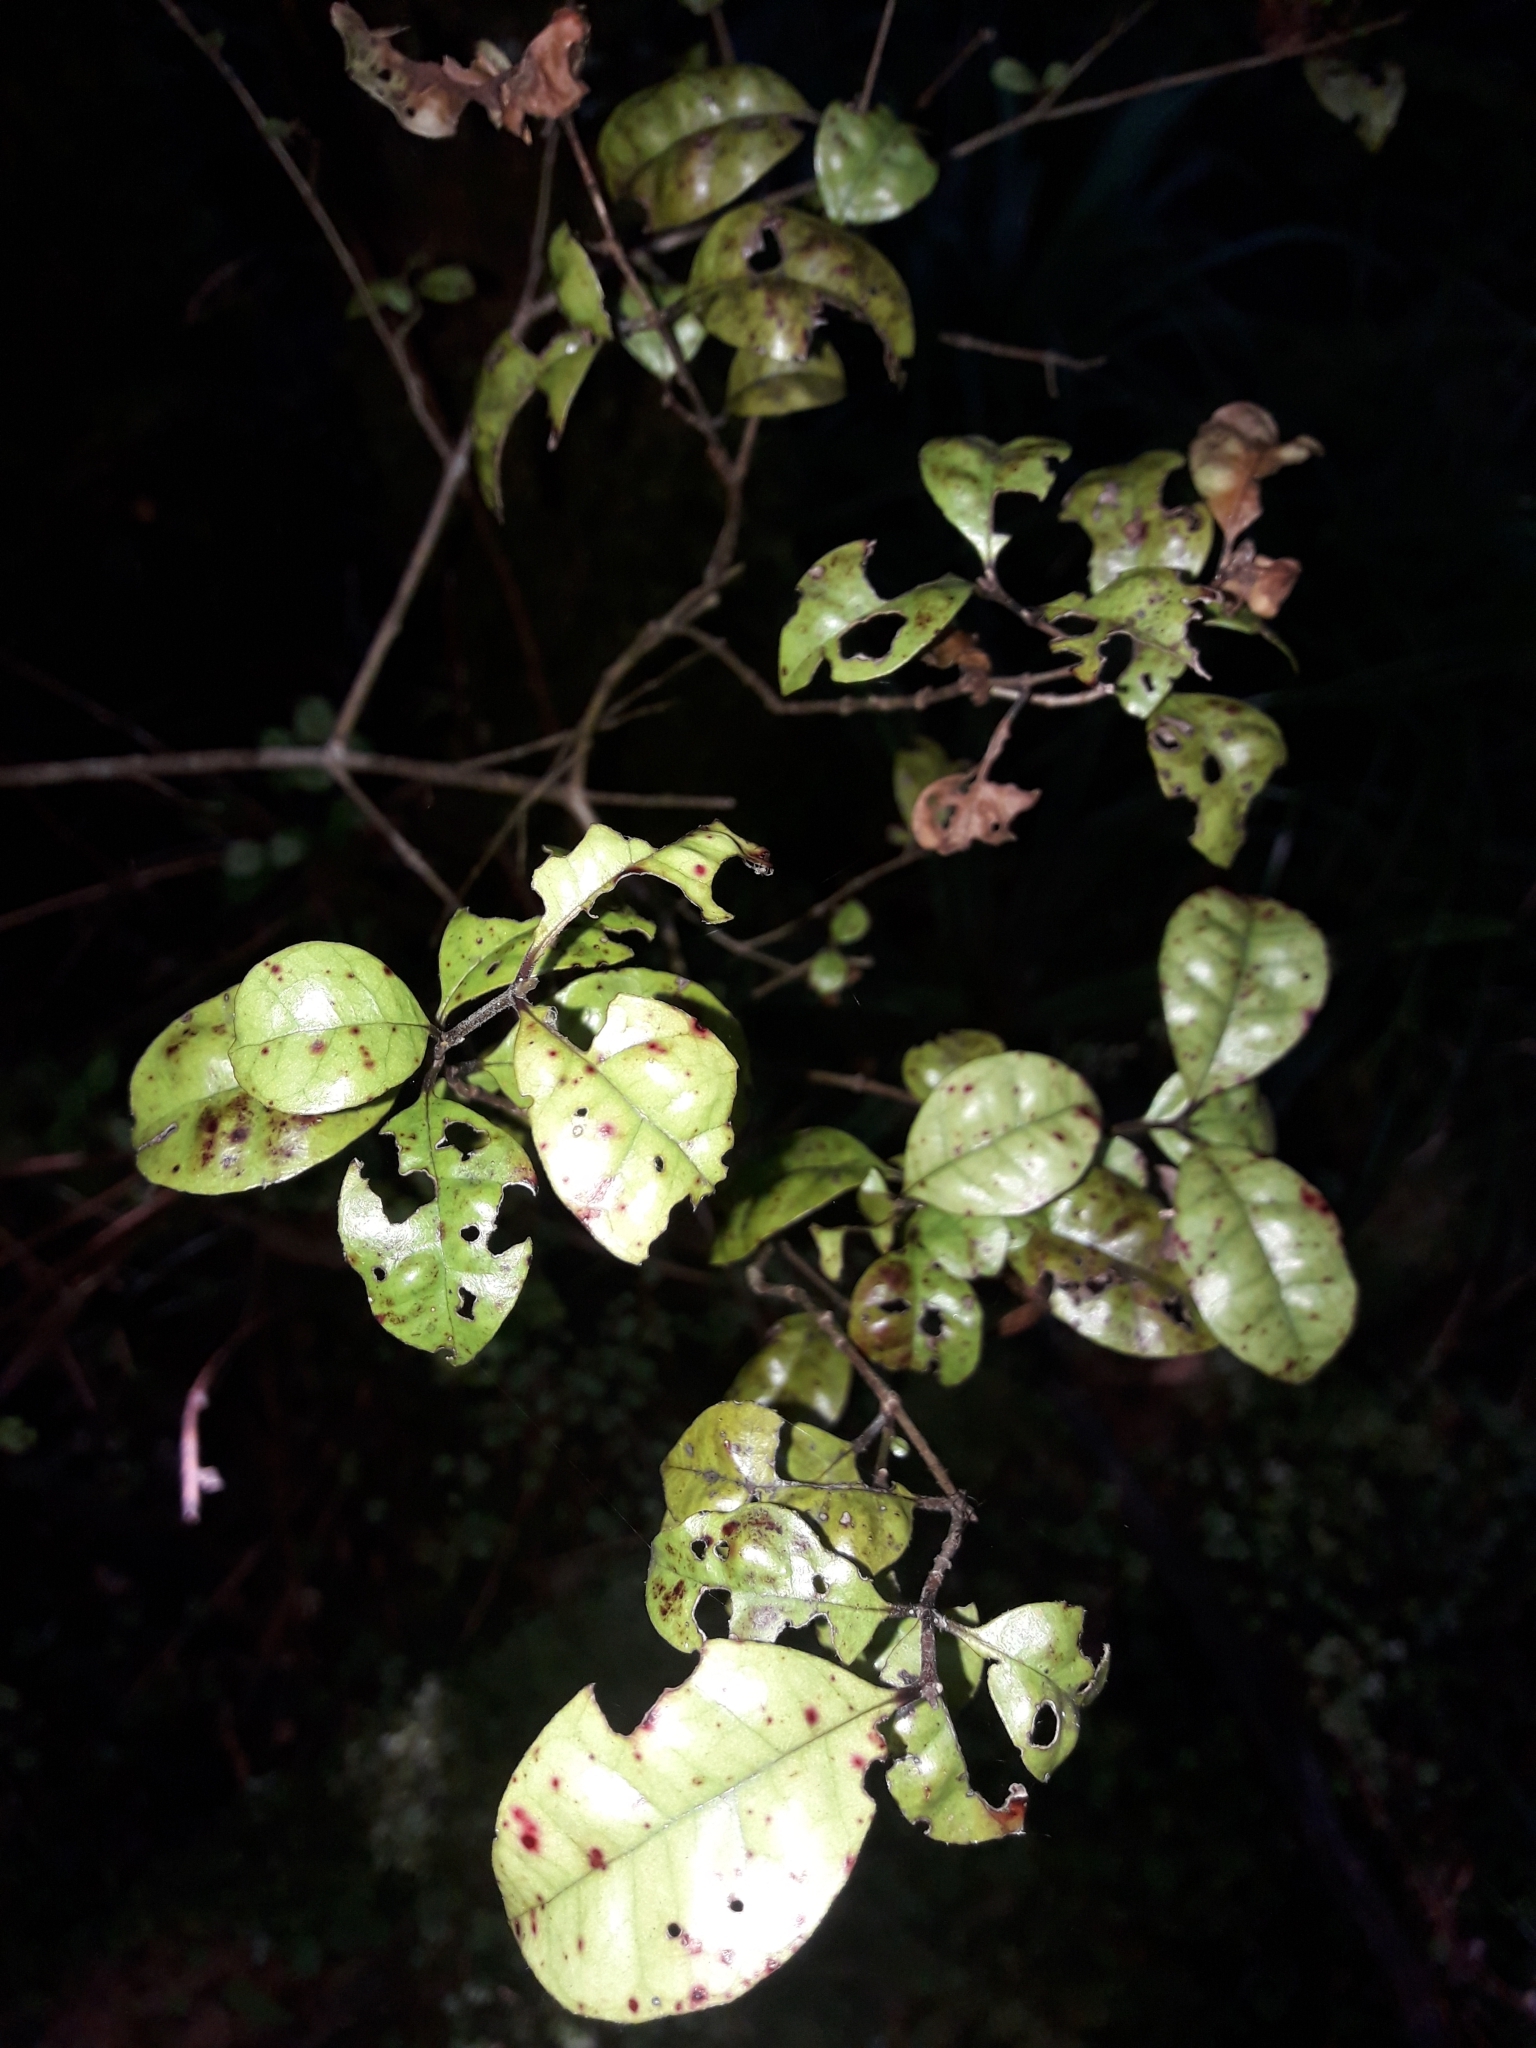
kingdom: Plantae
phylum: Tracheophyta
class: Magnoliopsida
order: Myrtales
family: Myrtaceae
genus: Lophomyrtus
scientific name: Lophomyrtus bullata
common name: Rama rama
